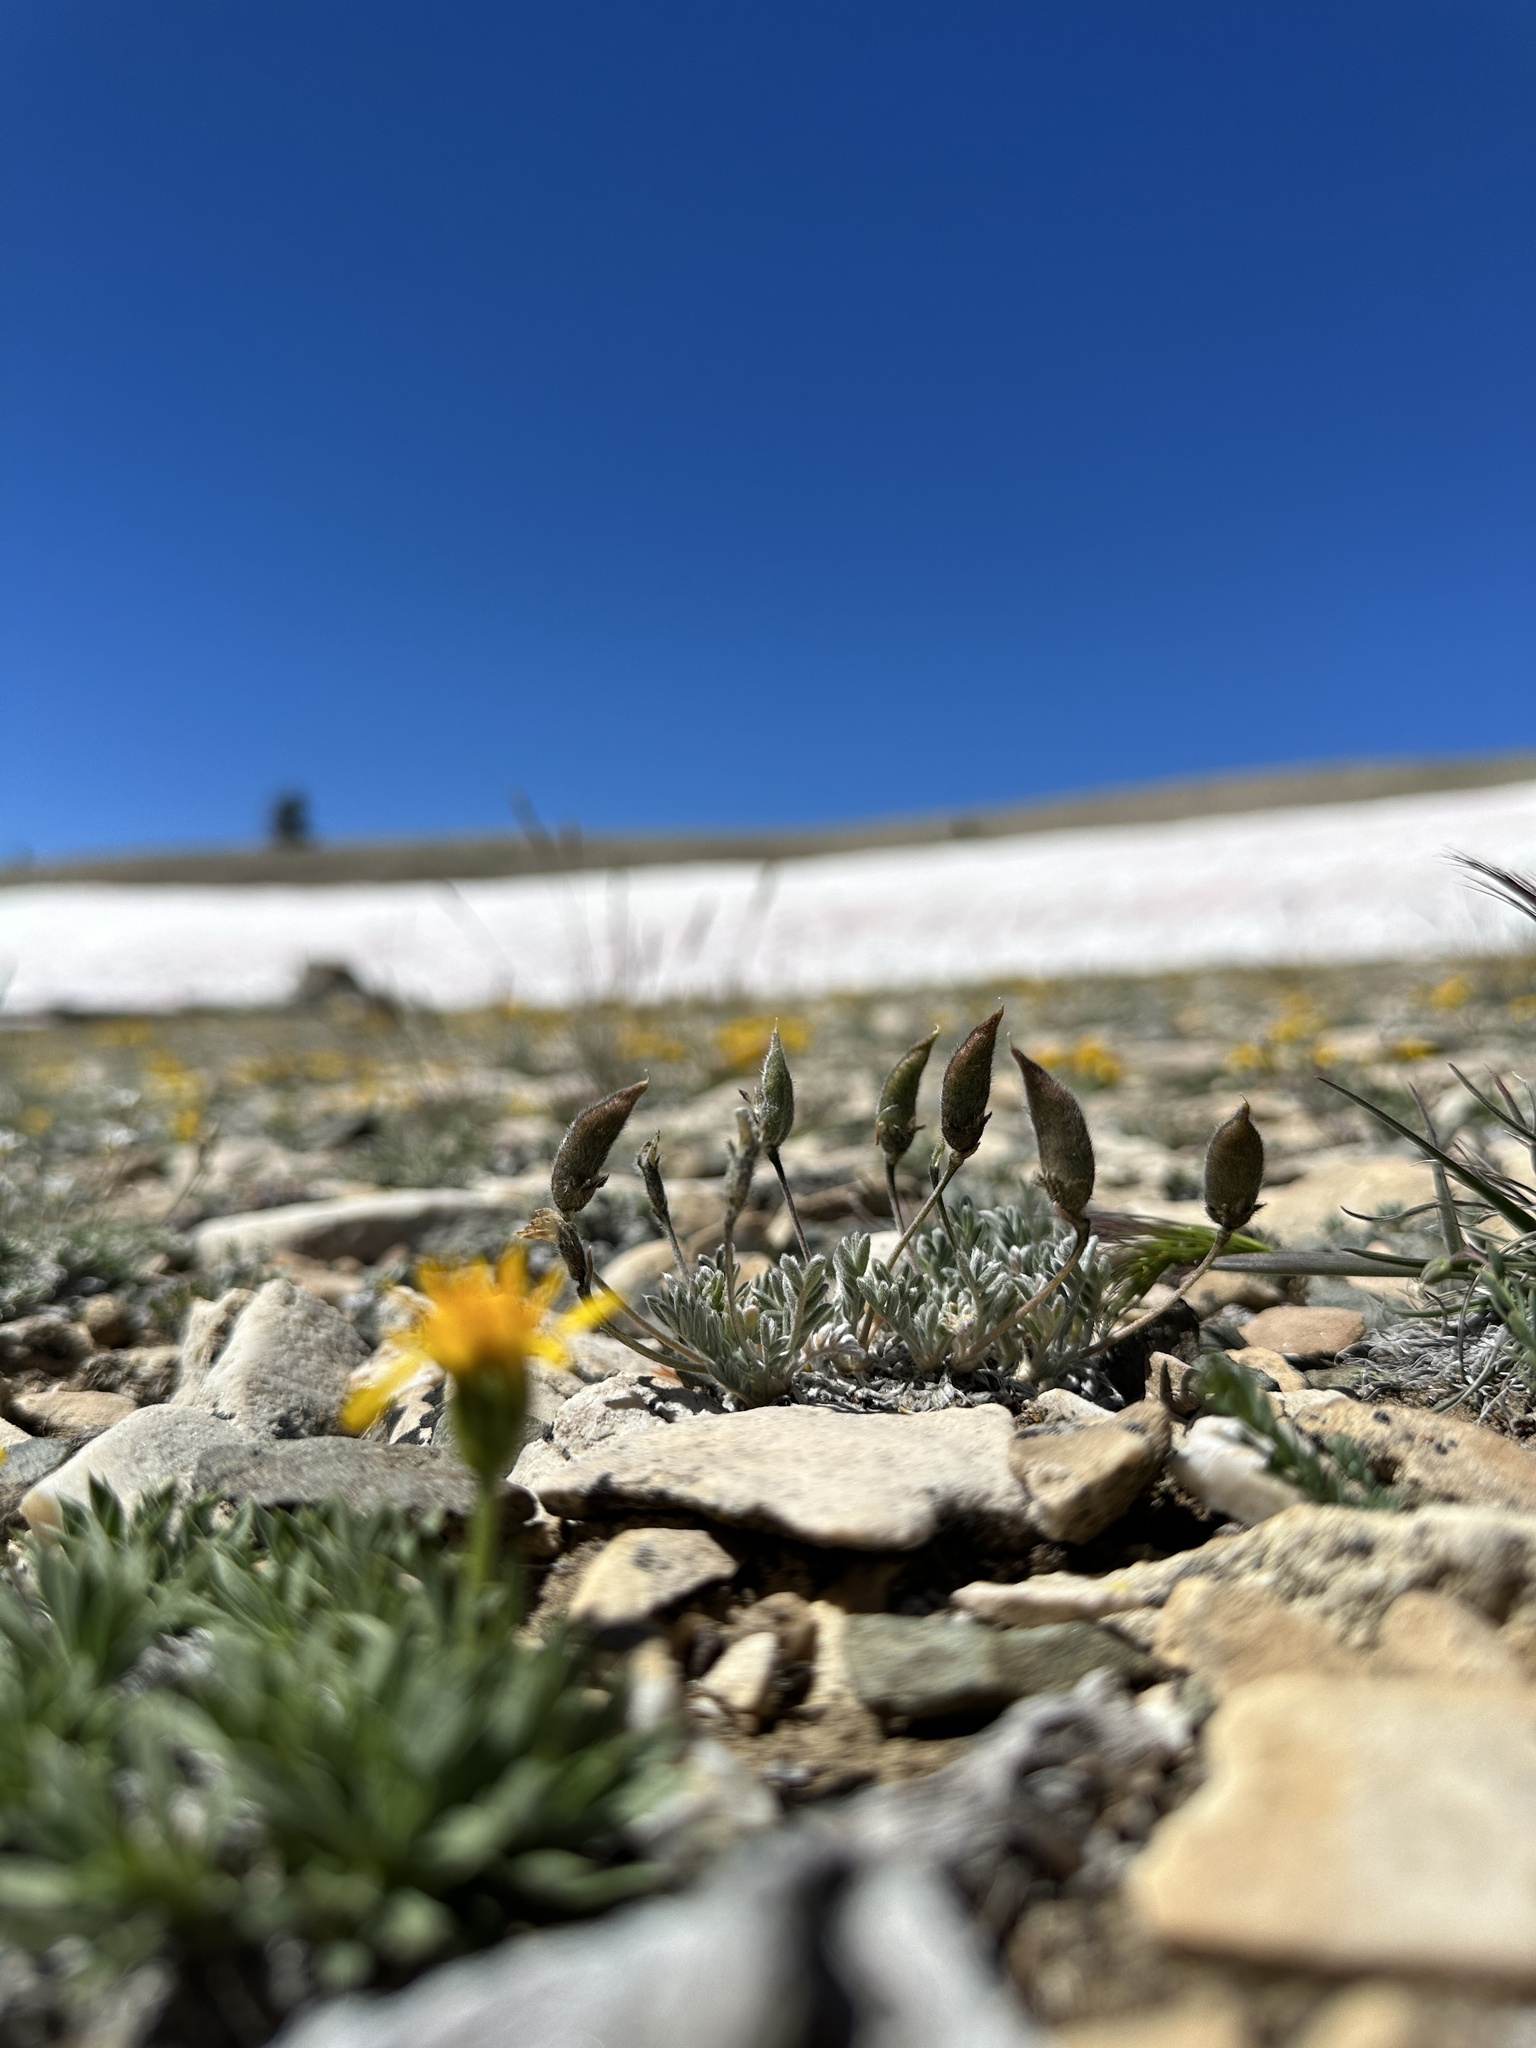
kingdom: Plantae
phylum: Tracheophyta
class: Magnoliopsida
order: Fabales
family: Fabaceae
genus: Oxytropis
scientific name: Oxytropis parryi
